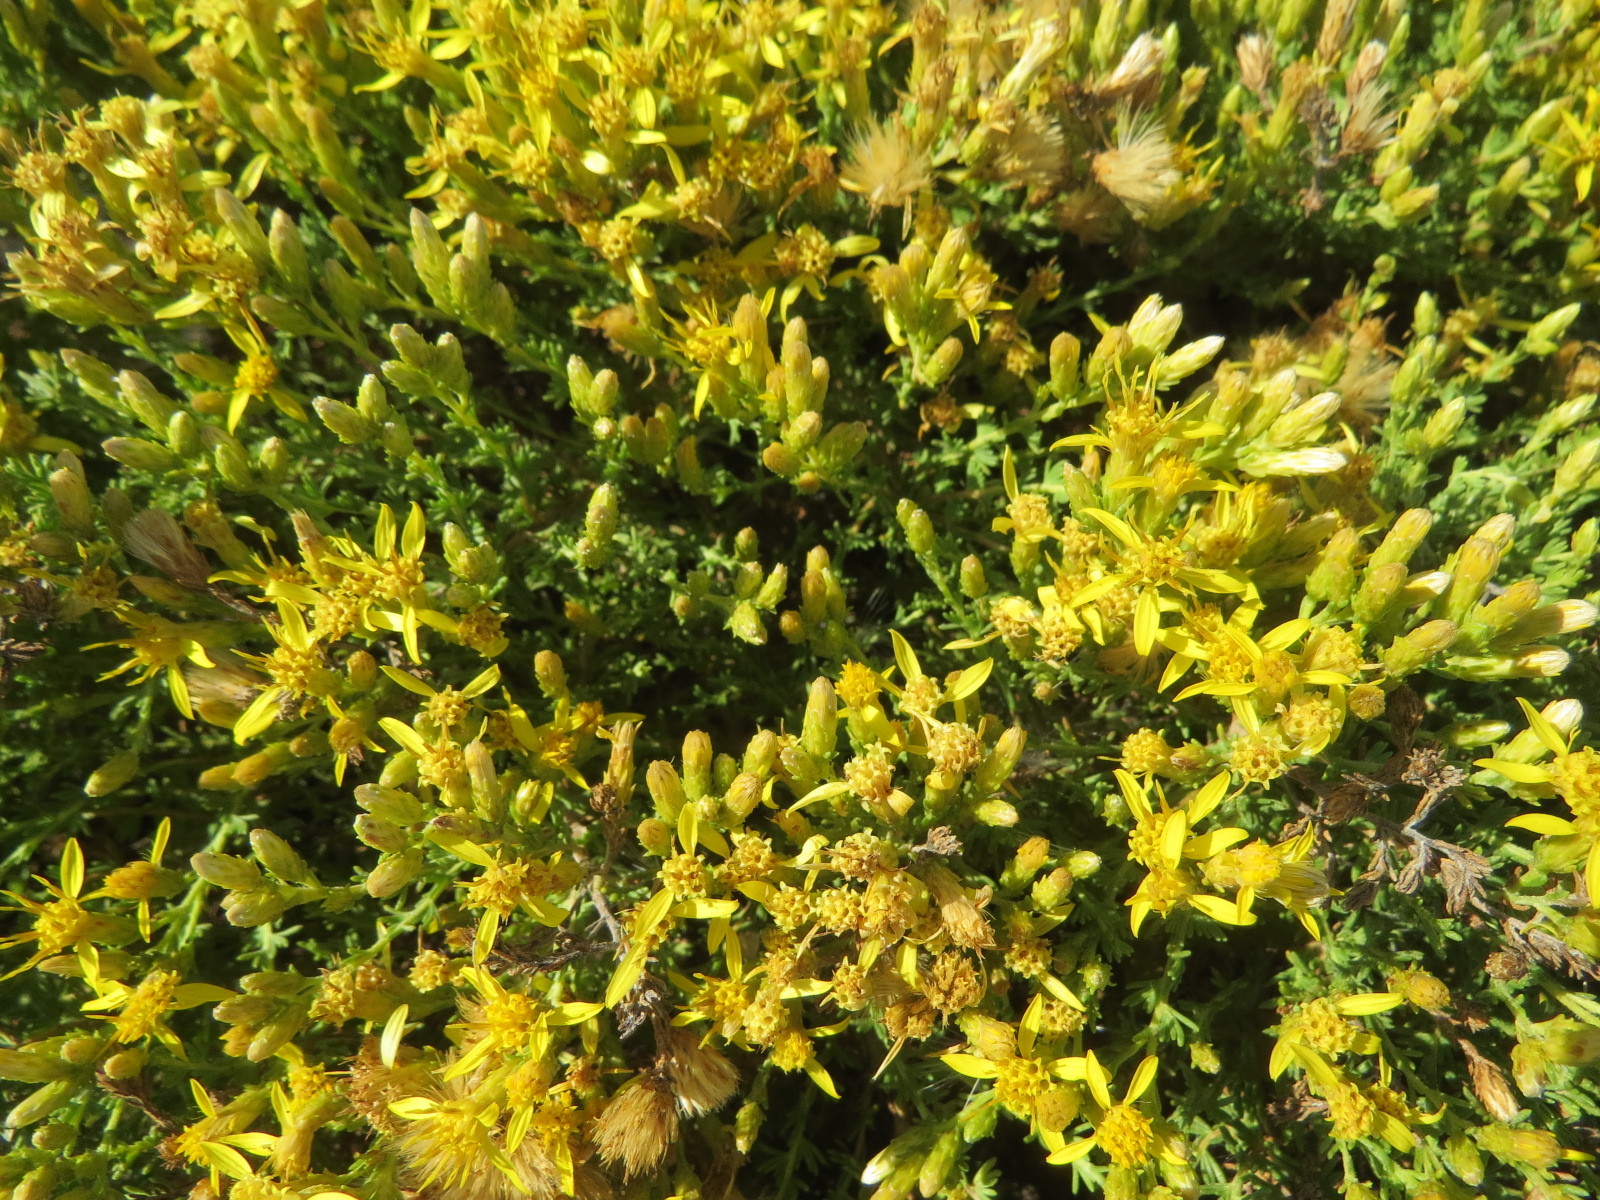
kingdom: Plantae
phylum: Tracheophyta
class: Magnoliopsida
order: Asterales
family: Asteraceae
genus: Ericameria
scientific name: Ericameria ericoides
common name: California goldenbush
